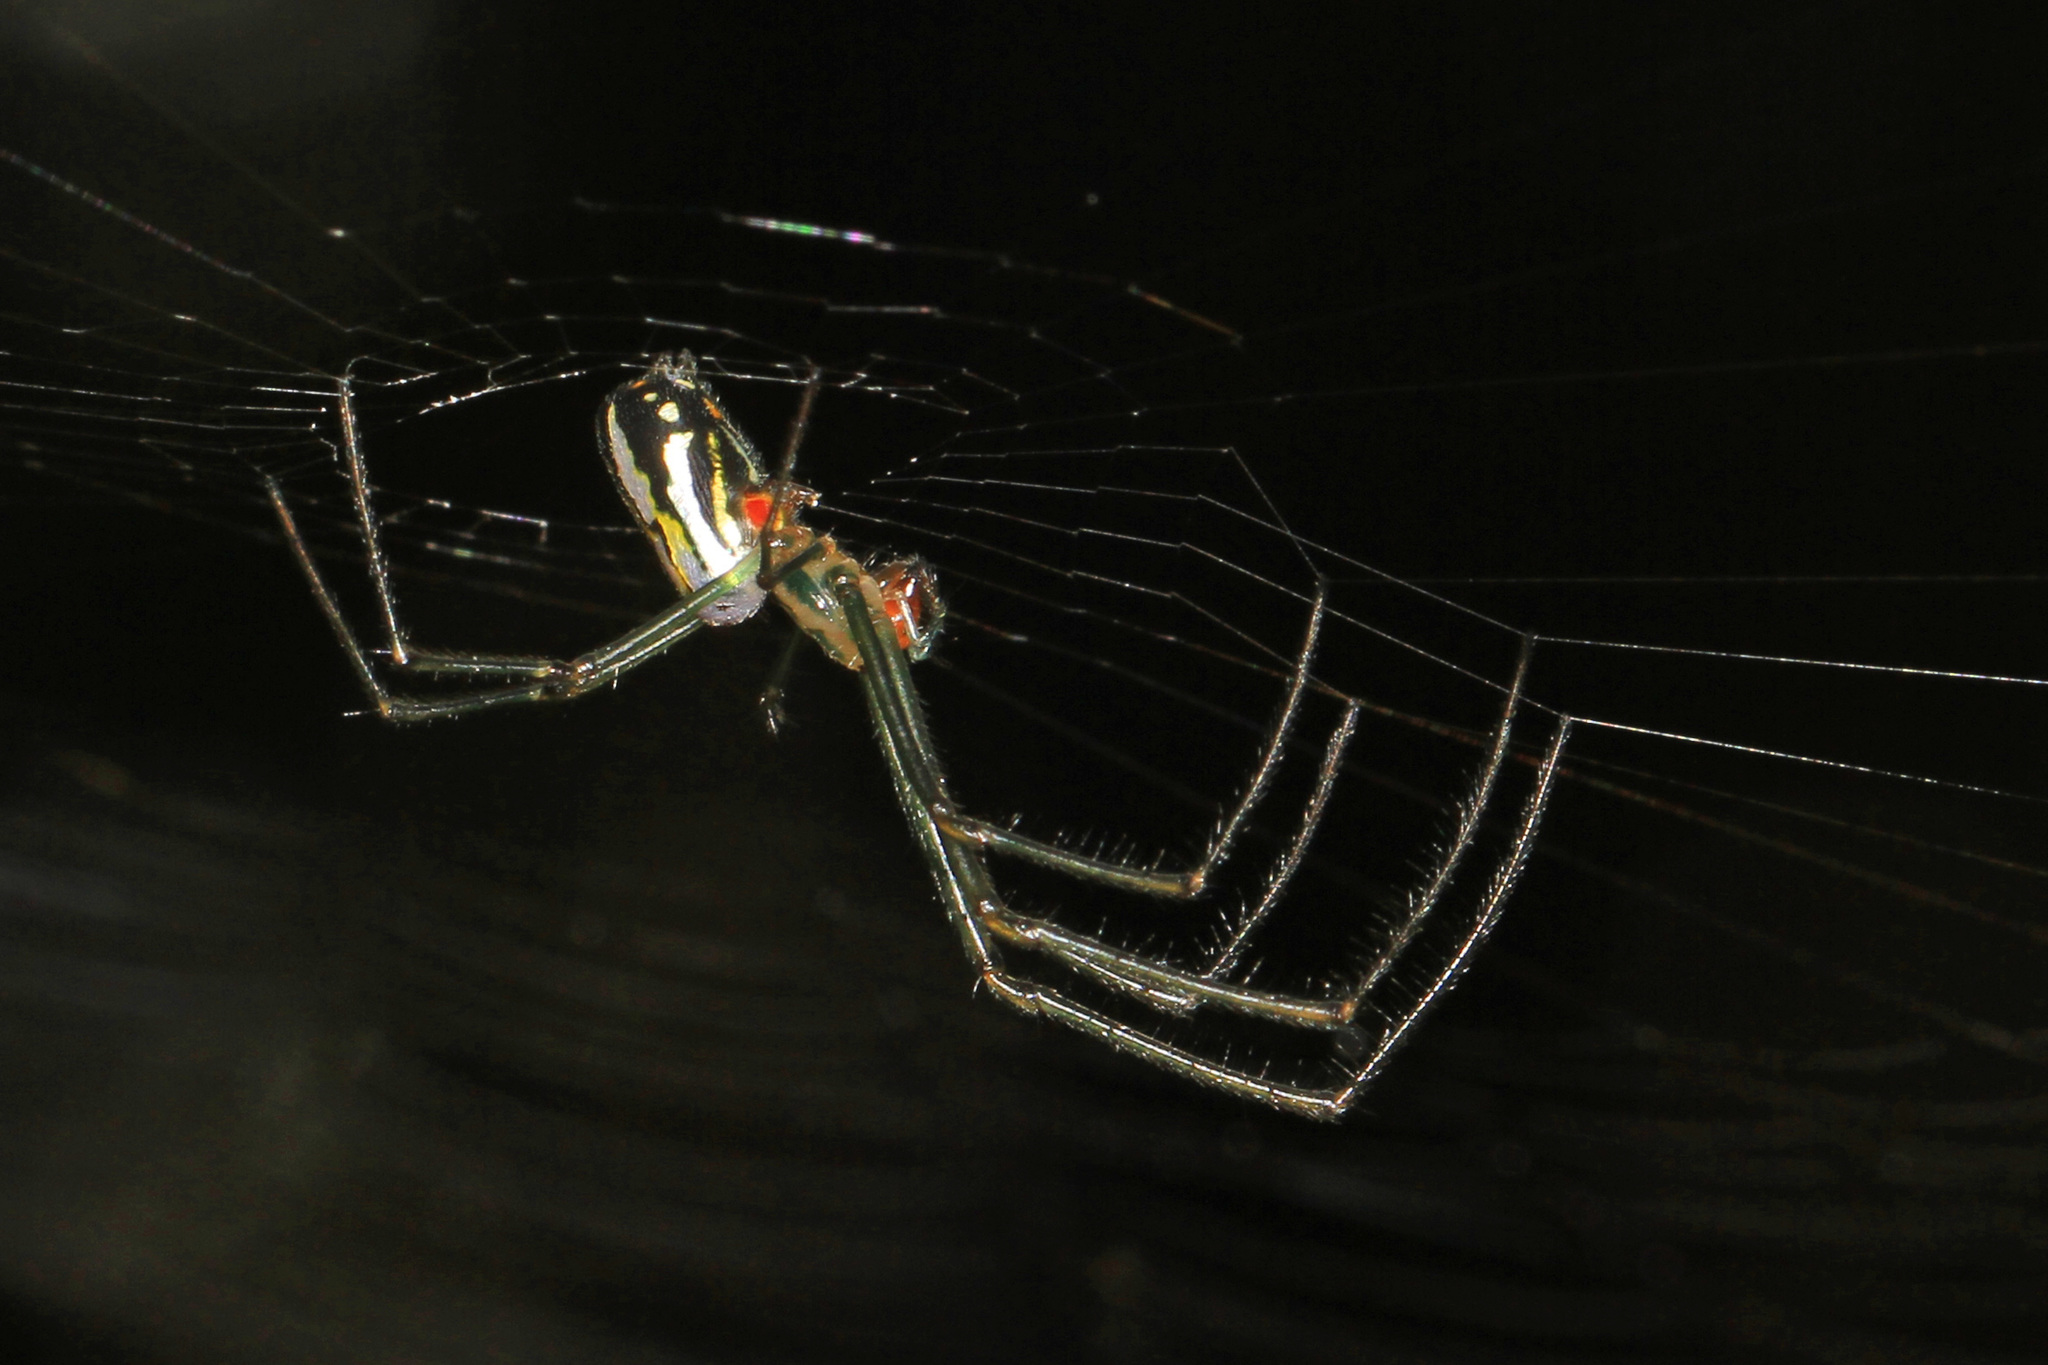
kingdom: Animalia
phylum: Arthropoda
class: Arachnida
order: Araneae
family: Tetragnathidae
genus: Leucauge
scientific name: Leucauge argyra
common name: Longjawed orb weavers
